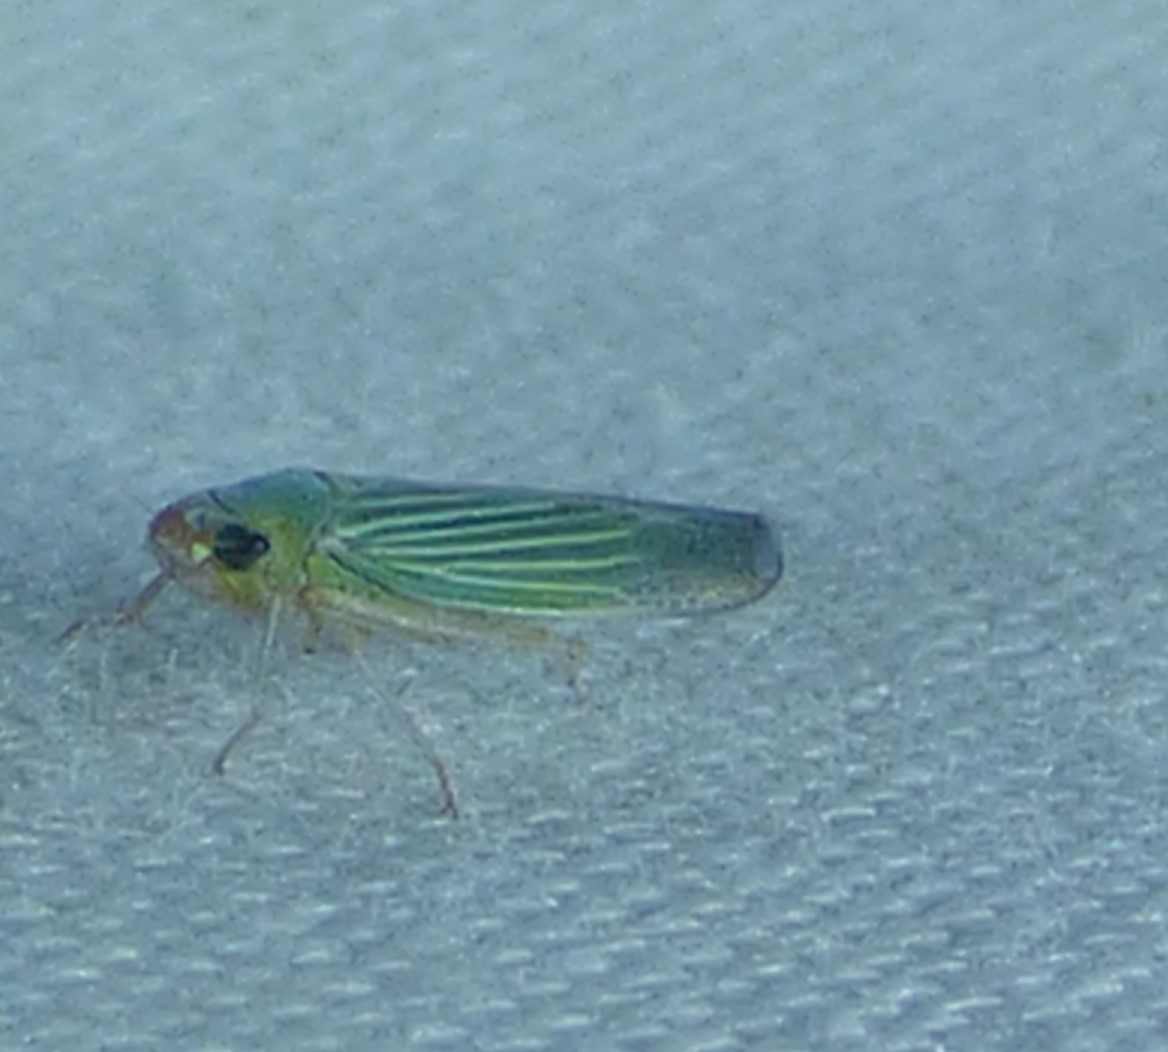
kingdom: Animalia
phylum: Arthropoda
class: Insecta
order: Hemiptera
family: Cicadellidae
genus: Xyphon
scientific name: Xyphon flaviceps
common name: Yellowheaded leafhopper
